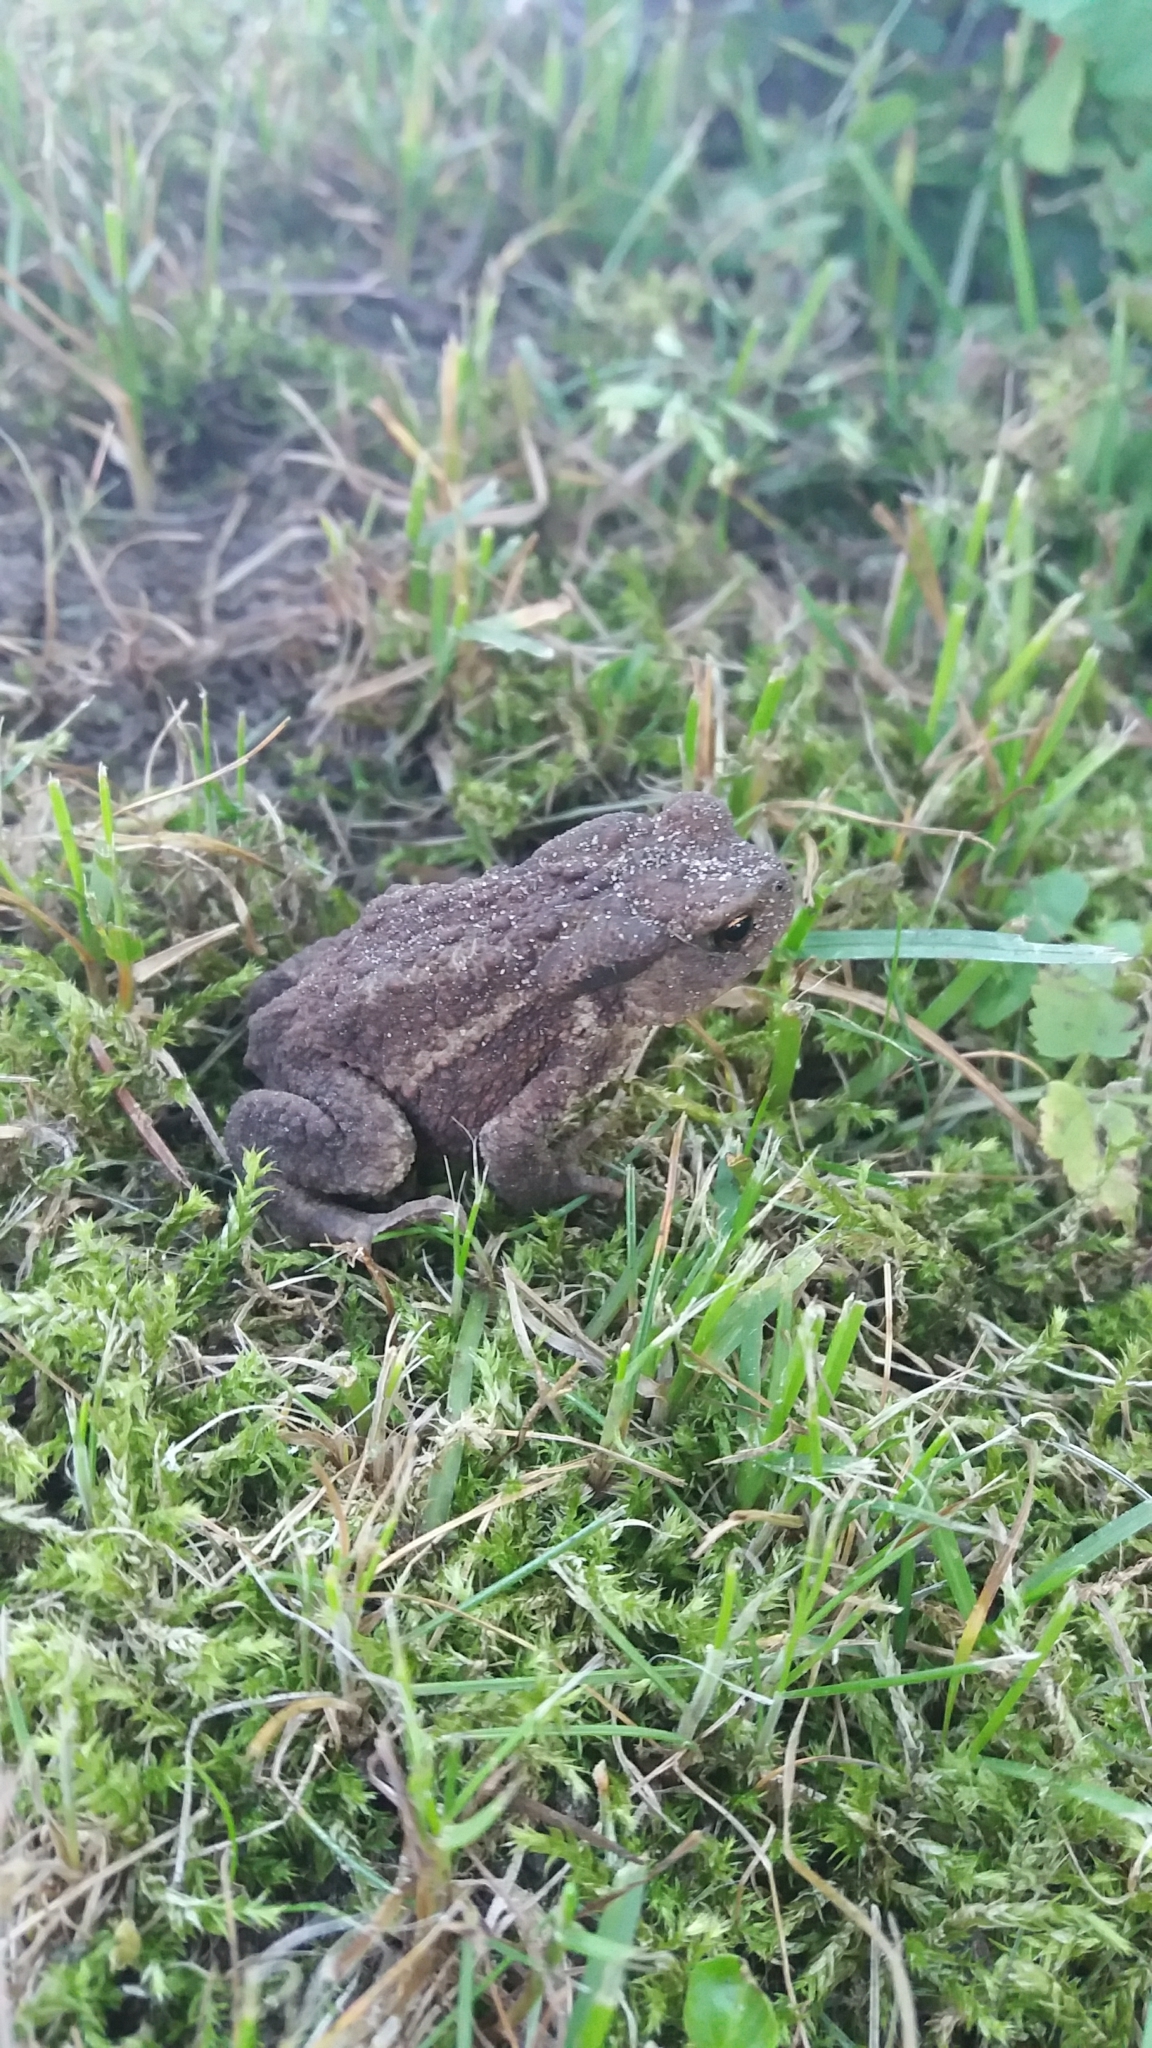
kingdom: Animalia
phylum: Chordata
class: Amphibia
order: Anura
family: Bufonidae
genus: Bufo
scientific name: Bufo bufo
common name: Common toad
